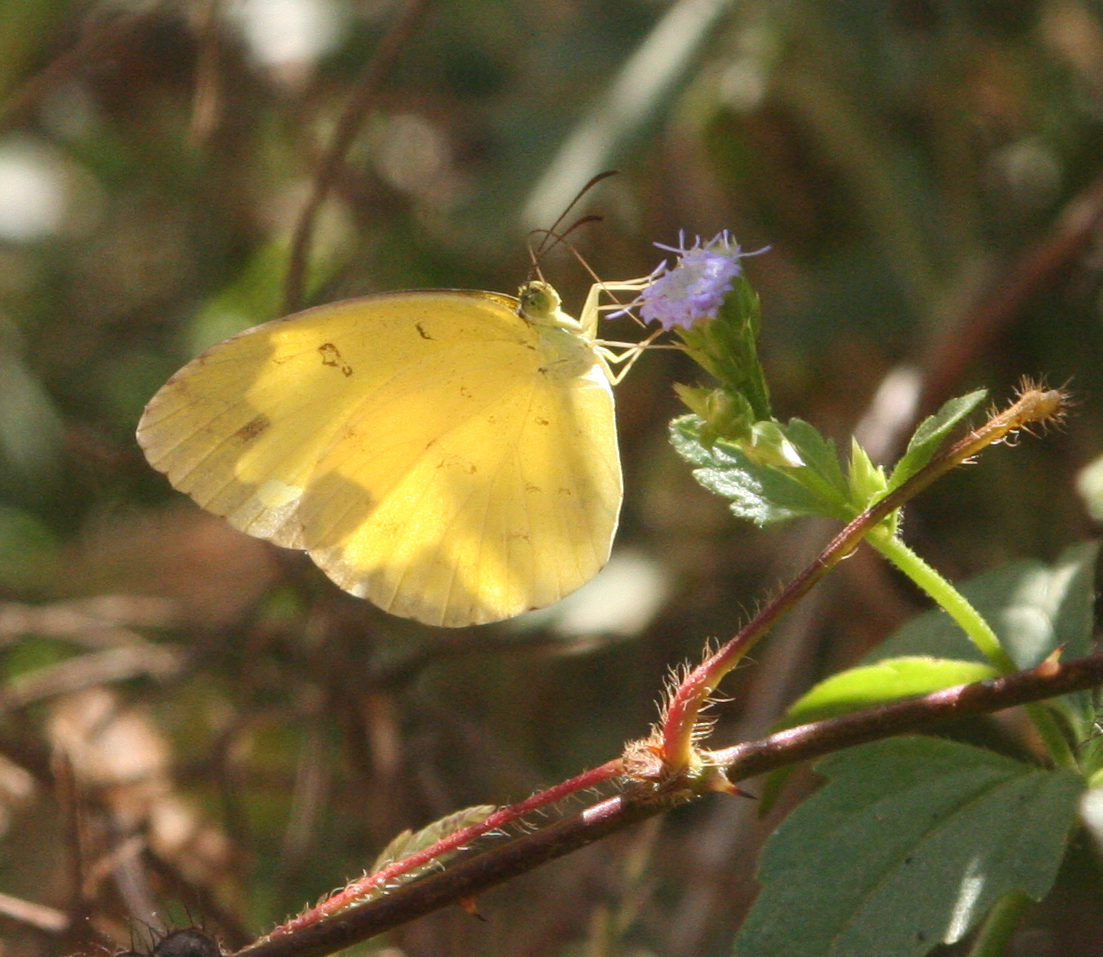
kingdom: Animalia
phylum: Arthropoda
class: Insecta
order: Lepidoptera
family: Pieridae
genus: Eurema
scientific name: Eurema andersoni
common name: One-spot yellow grass
